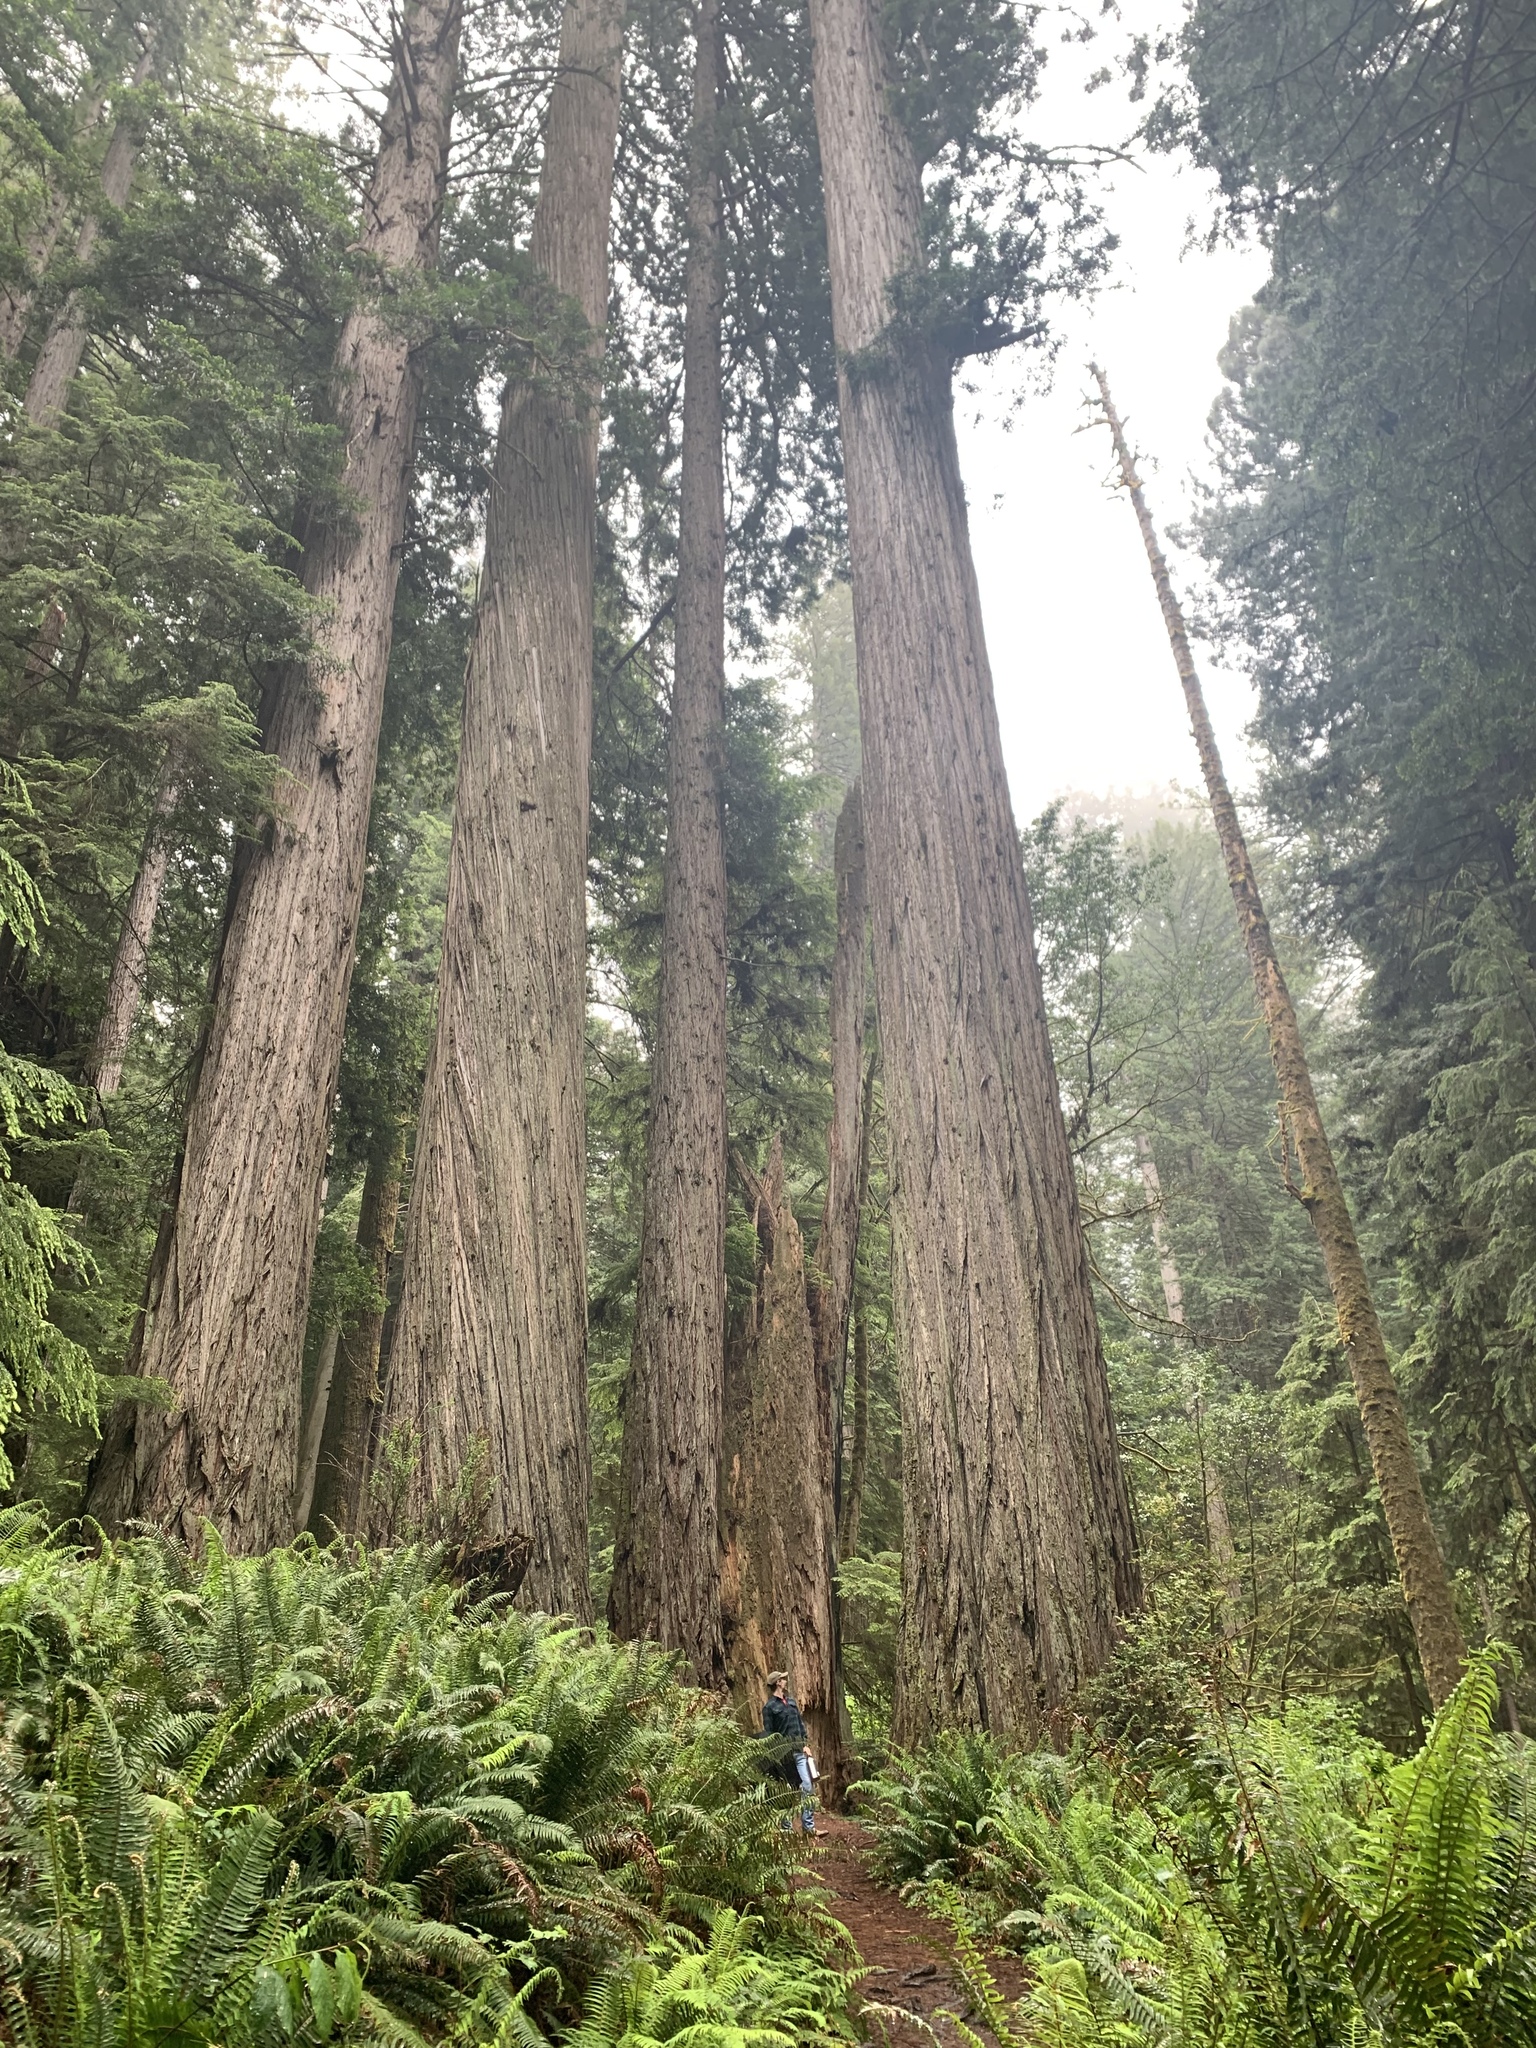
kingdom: Plantae
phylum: Tracheophyta
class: Pinopsida
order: Pinales
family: Cupressaceae
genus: Sequoia
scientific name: Sequoia sempervirens
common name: Coast redwood
